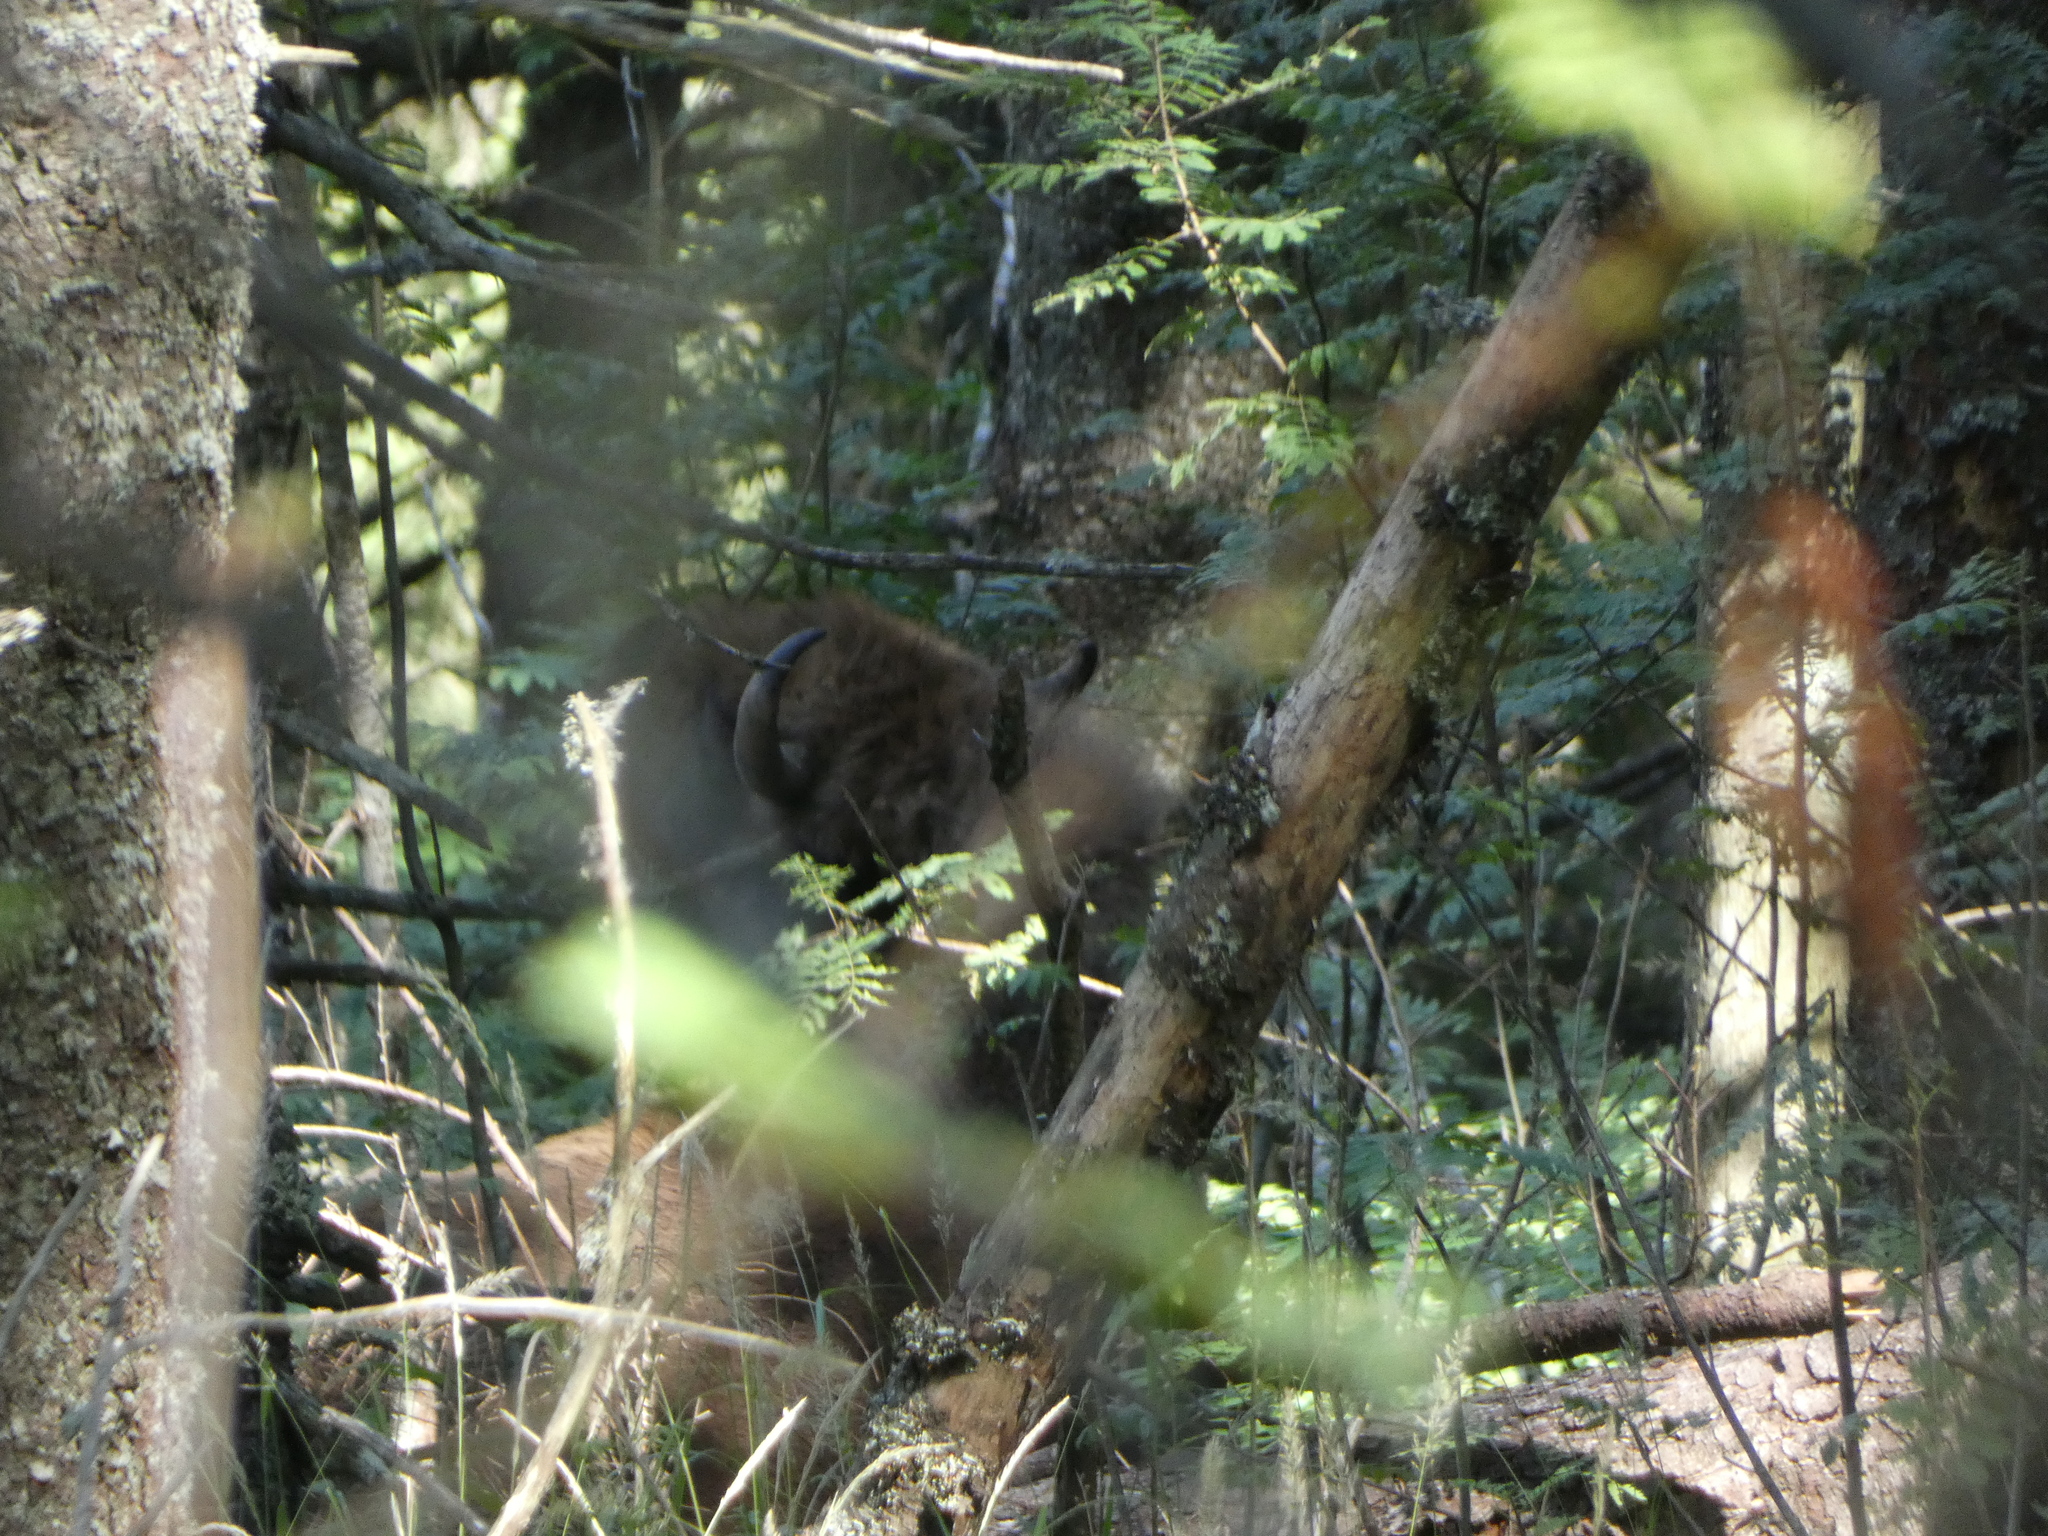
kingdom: Animalia
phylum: Chordata
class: Mammalia
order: Artiodactyla
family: Bovidae
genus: Bison
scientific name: Bison bonasus
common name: European bison
